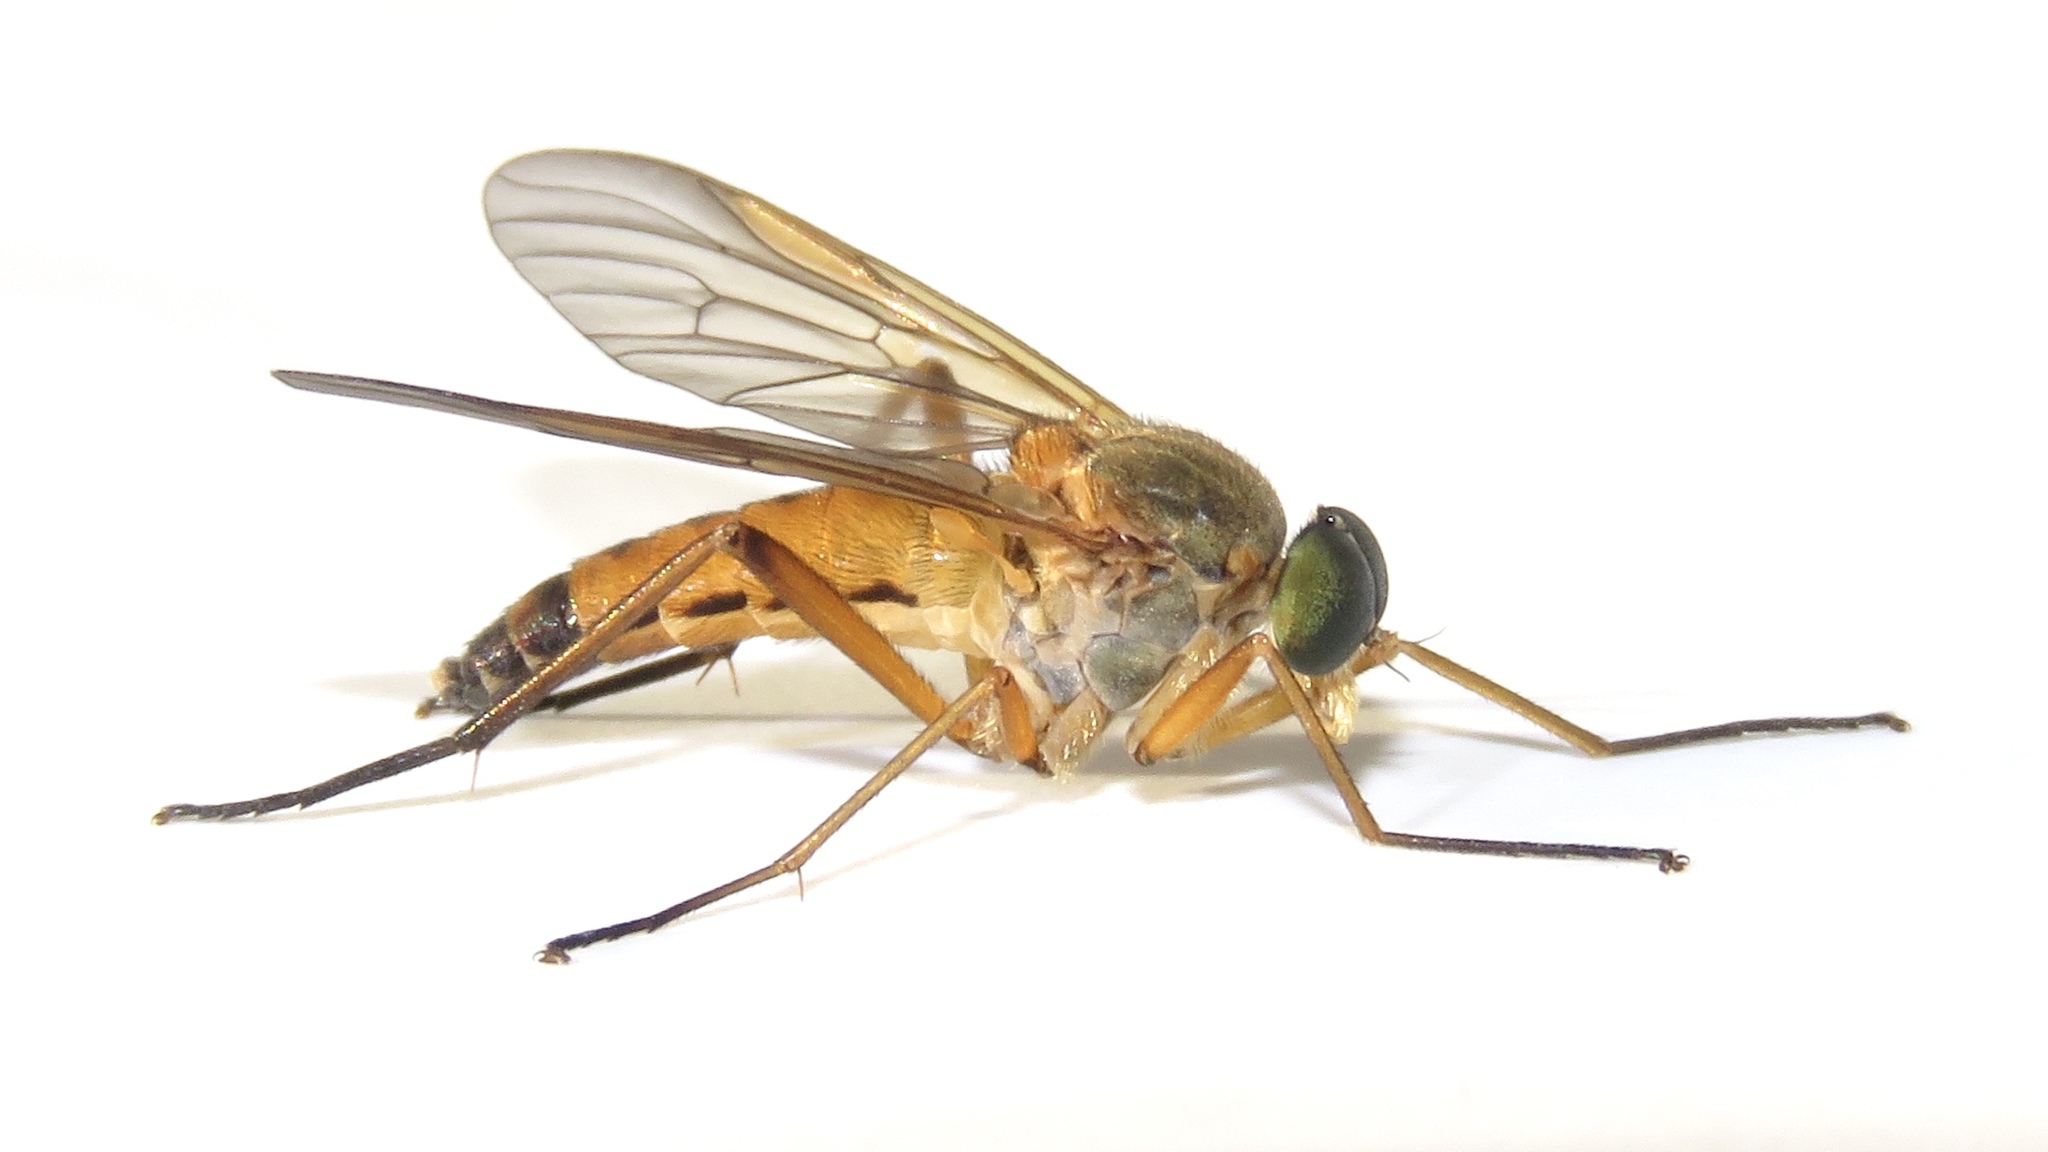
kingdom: Animalia
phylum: Arthropoda
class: Insecta
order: Diptera
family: Rhagionidae
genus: Rhagio
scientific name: Rhagio tringaria
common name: Marsh snipefly
